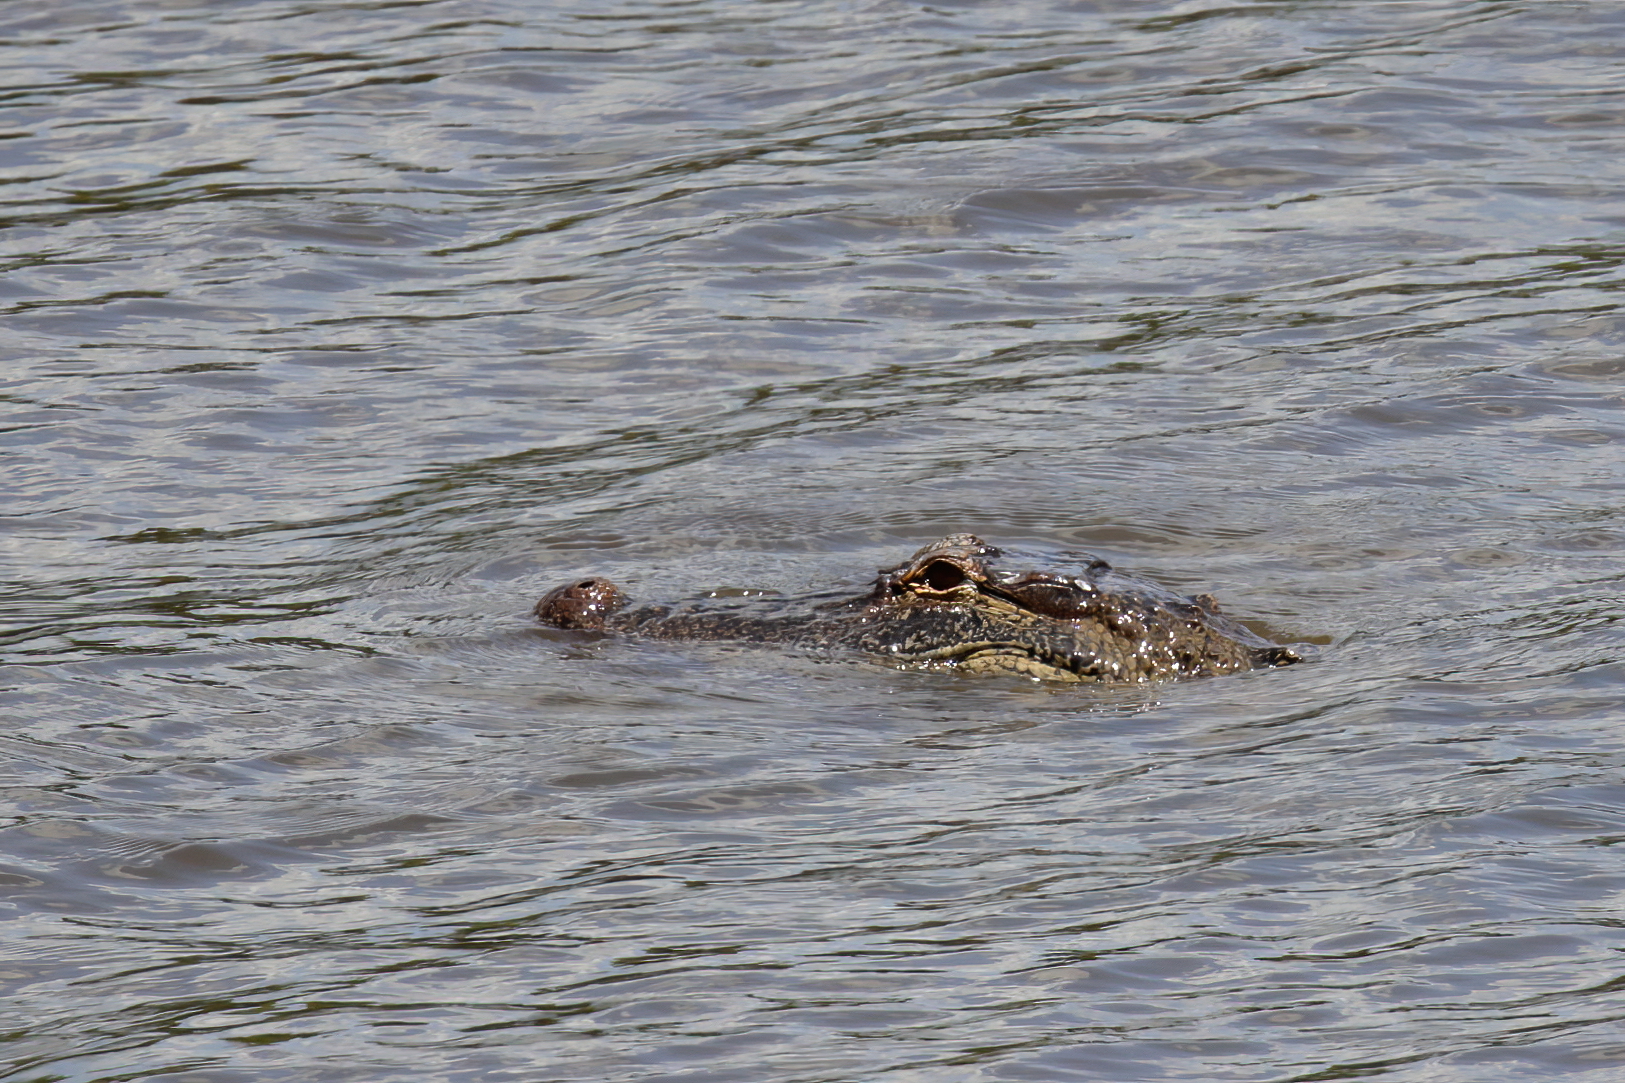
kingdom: Animalia
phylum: Chordata
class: Crocodylia
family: Alligatoridae
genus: Alligator
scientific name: Alligator mississippiensis
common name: American alligator
